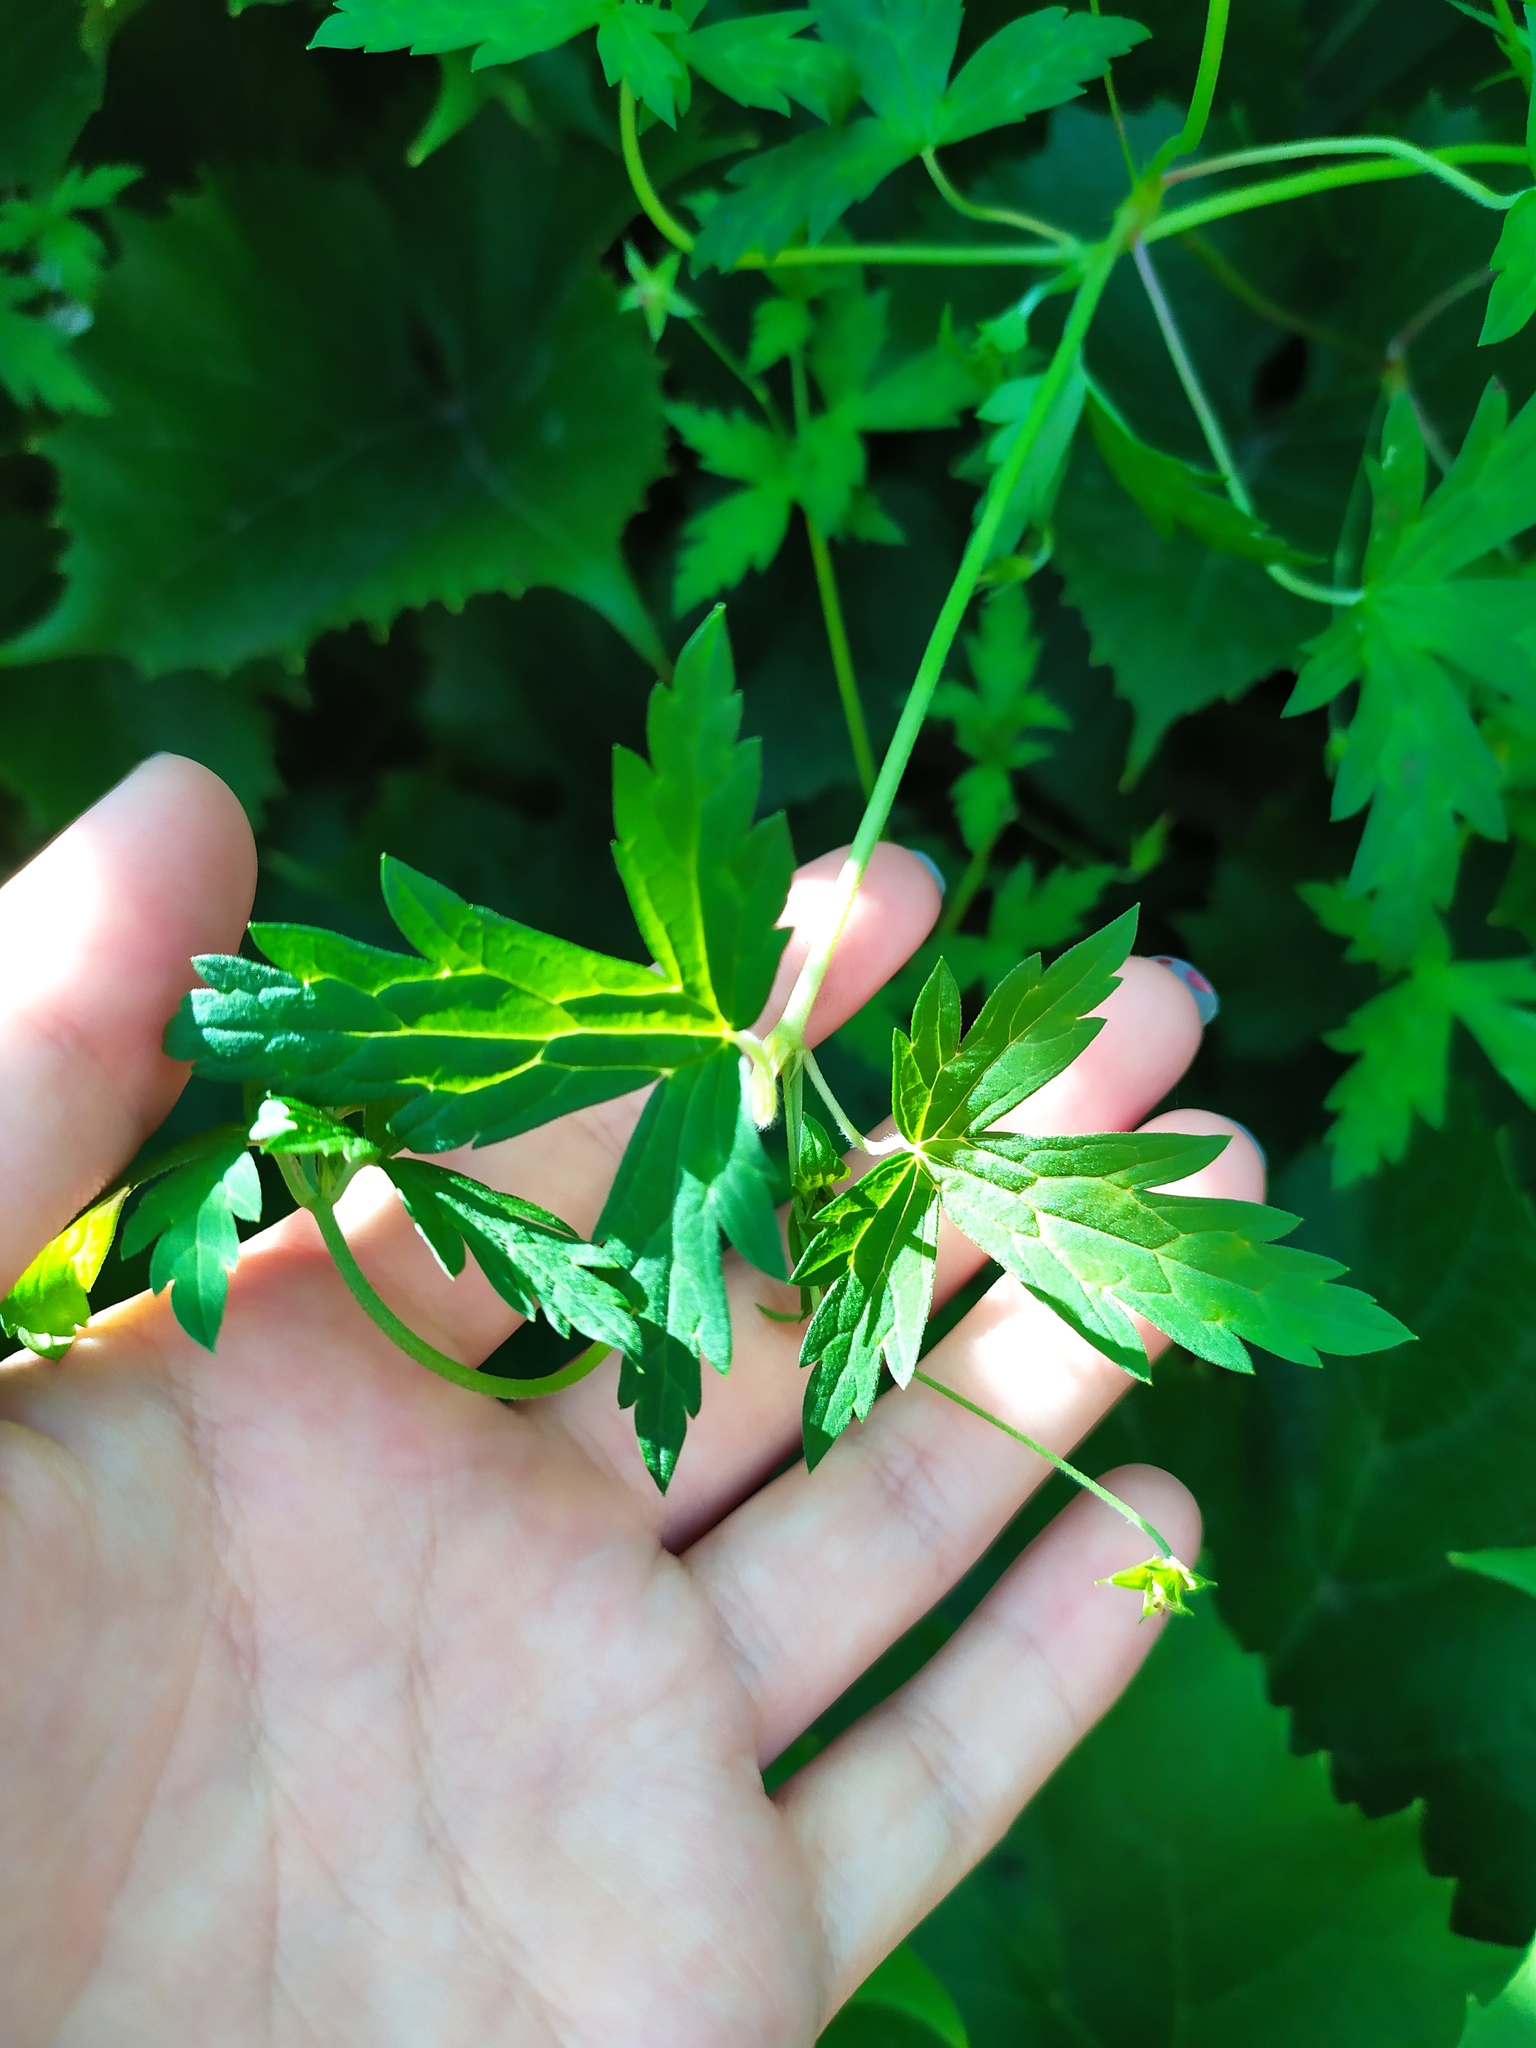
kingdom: Plantae
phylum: Tracheophyta
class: Magnoliopsida
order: Geraniales
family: Geraniaceae
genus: Geranium
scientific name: Geranium sibiricum
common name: Siberian crane's-bill
